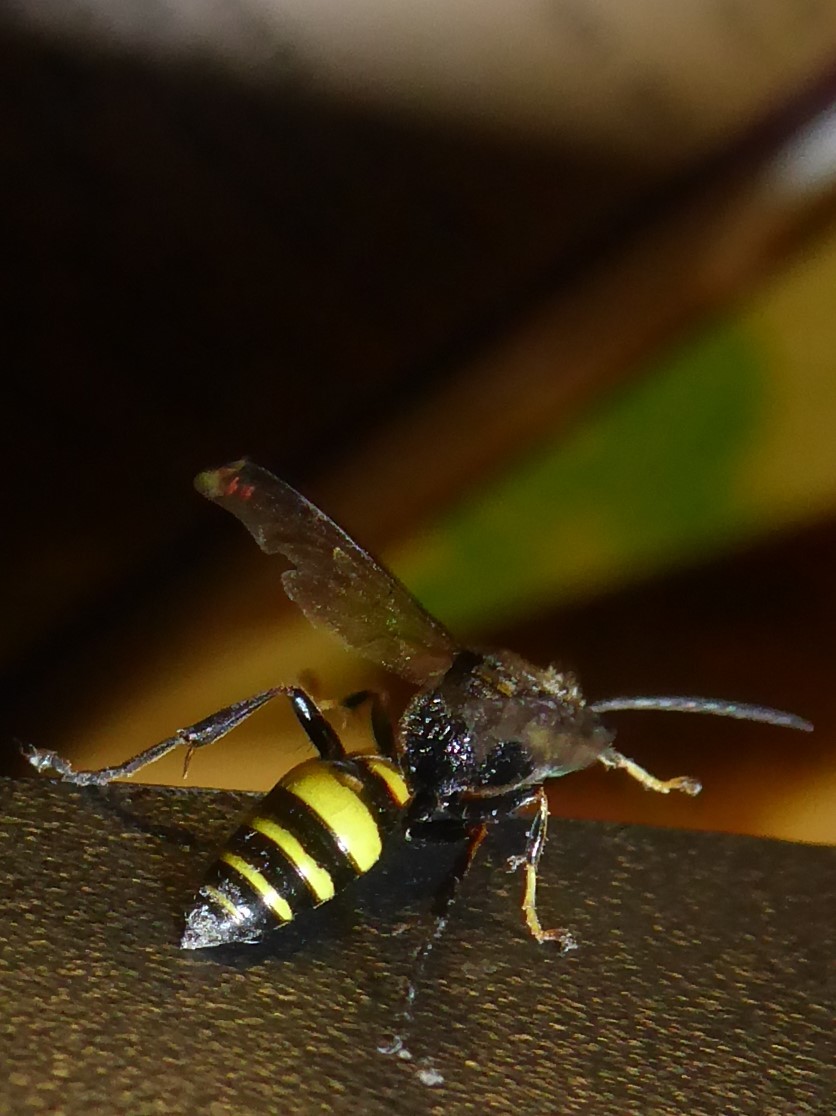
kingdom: Animalia
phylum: Arthropoda
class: Insecta
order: Hymenoptera
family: Crabronidae
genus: Gorytes
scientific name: Gorytes laticinctus
